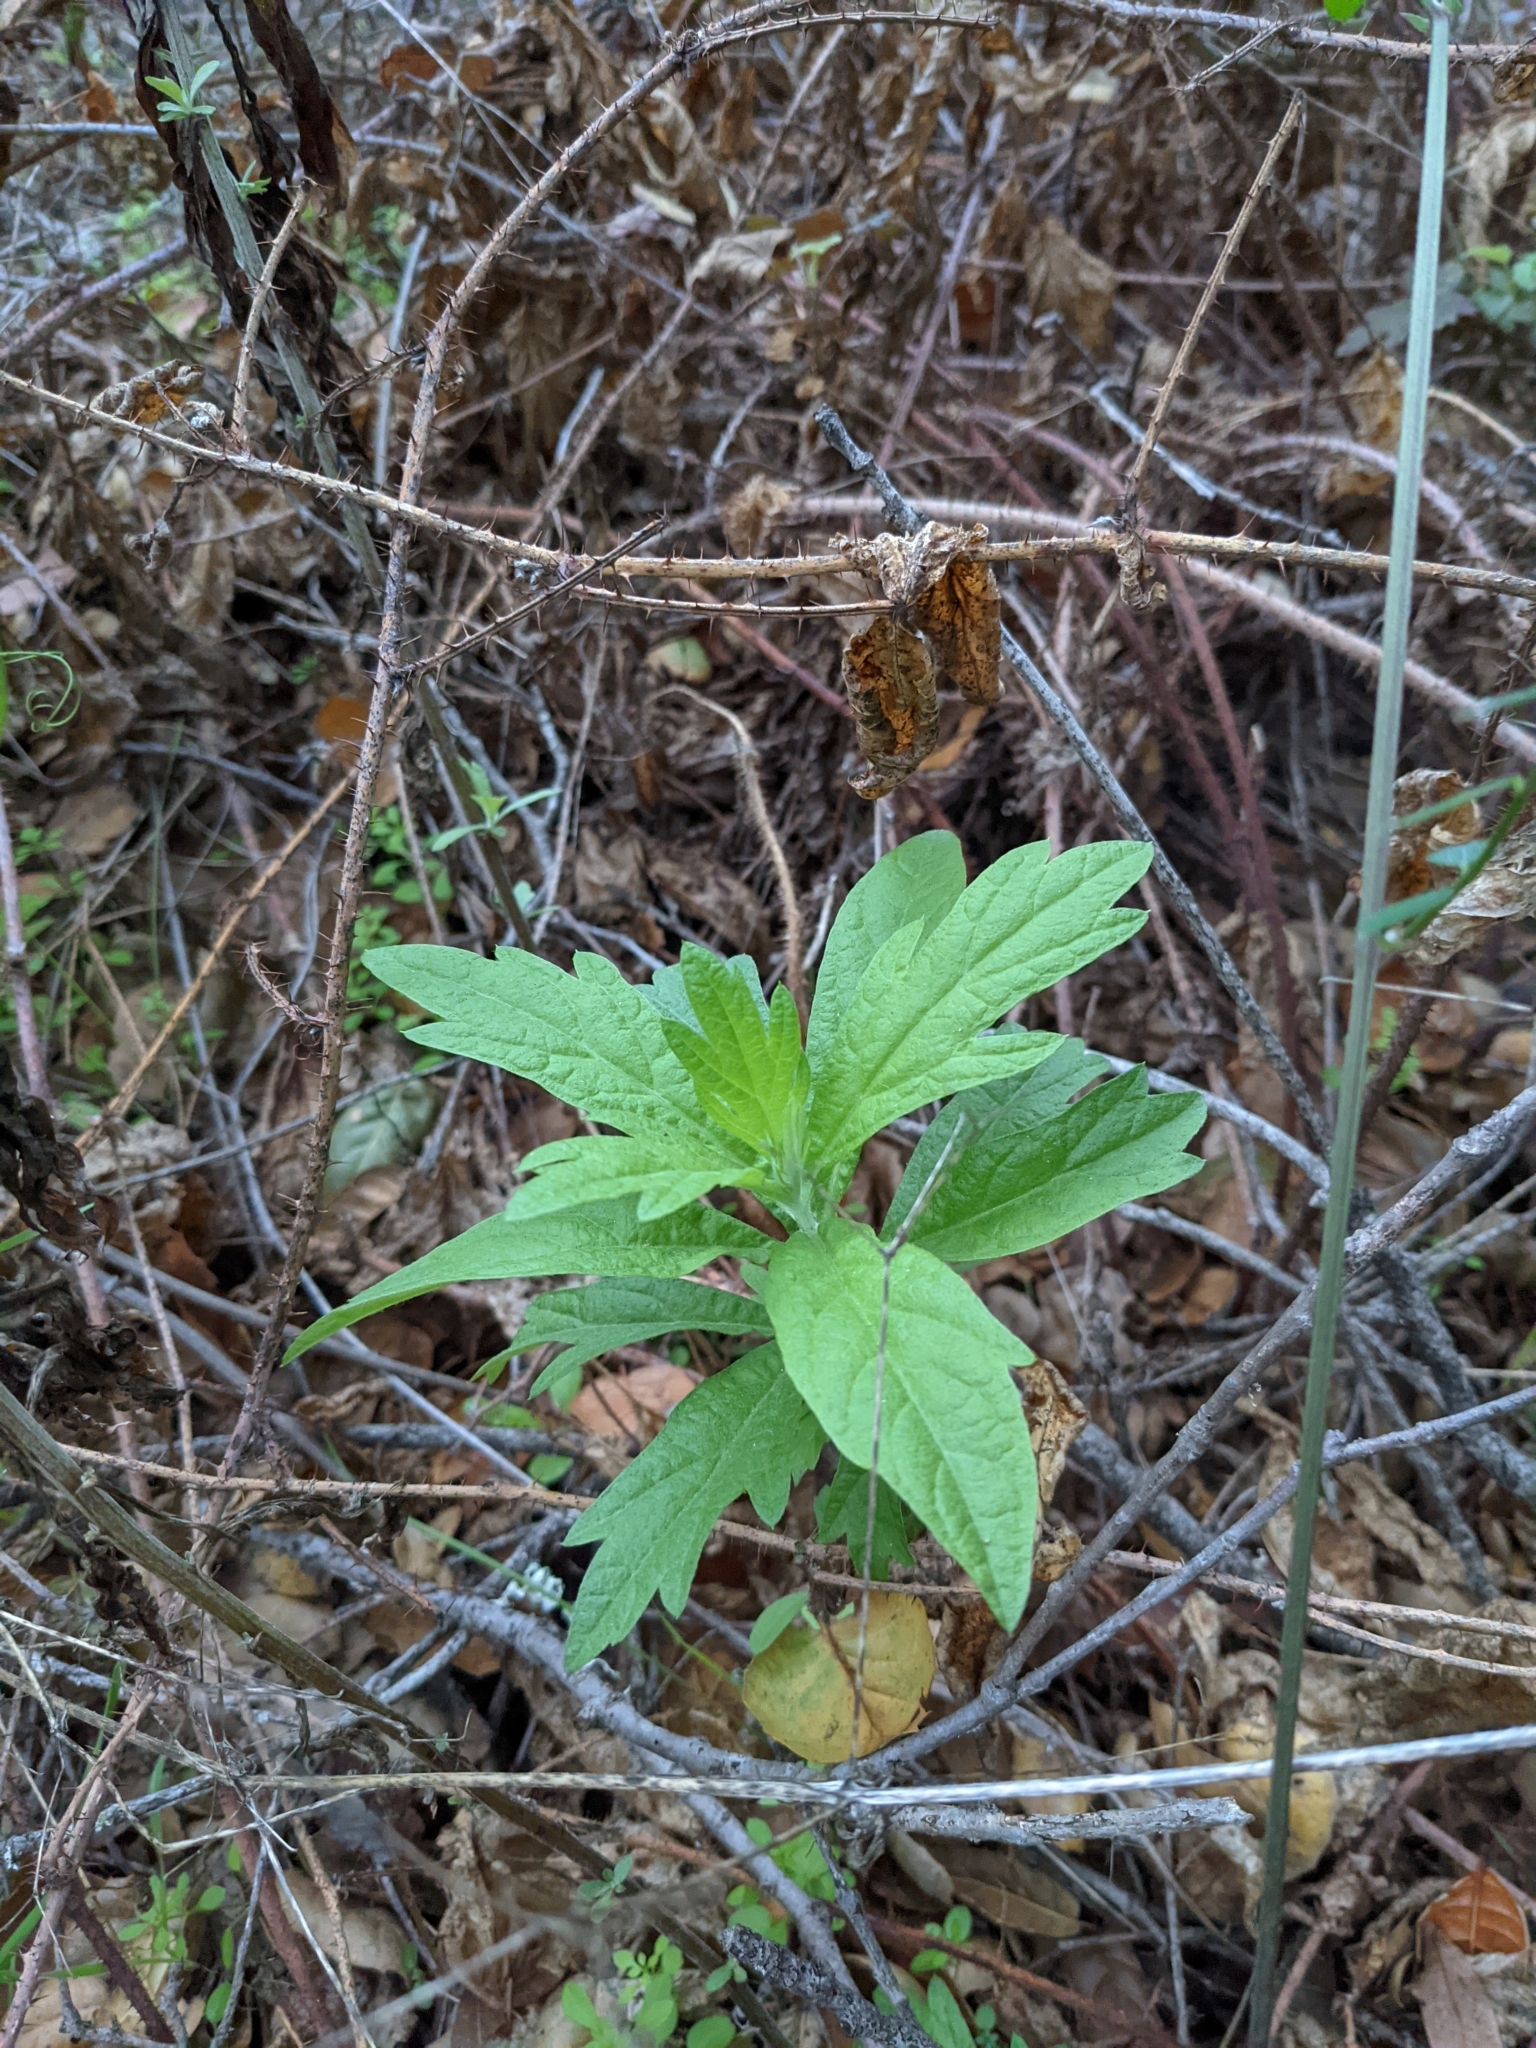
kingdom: Plantae
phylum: Tracheophyta
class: Magnoliopsida
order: Asterales
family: Asteraceae
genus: Artemisia
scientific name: Artemisia douglasiana
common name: Northwest mugwort
